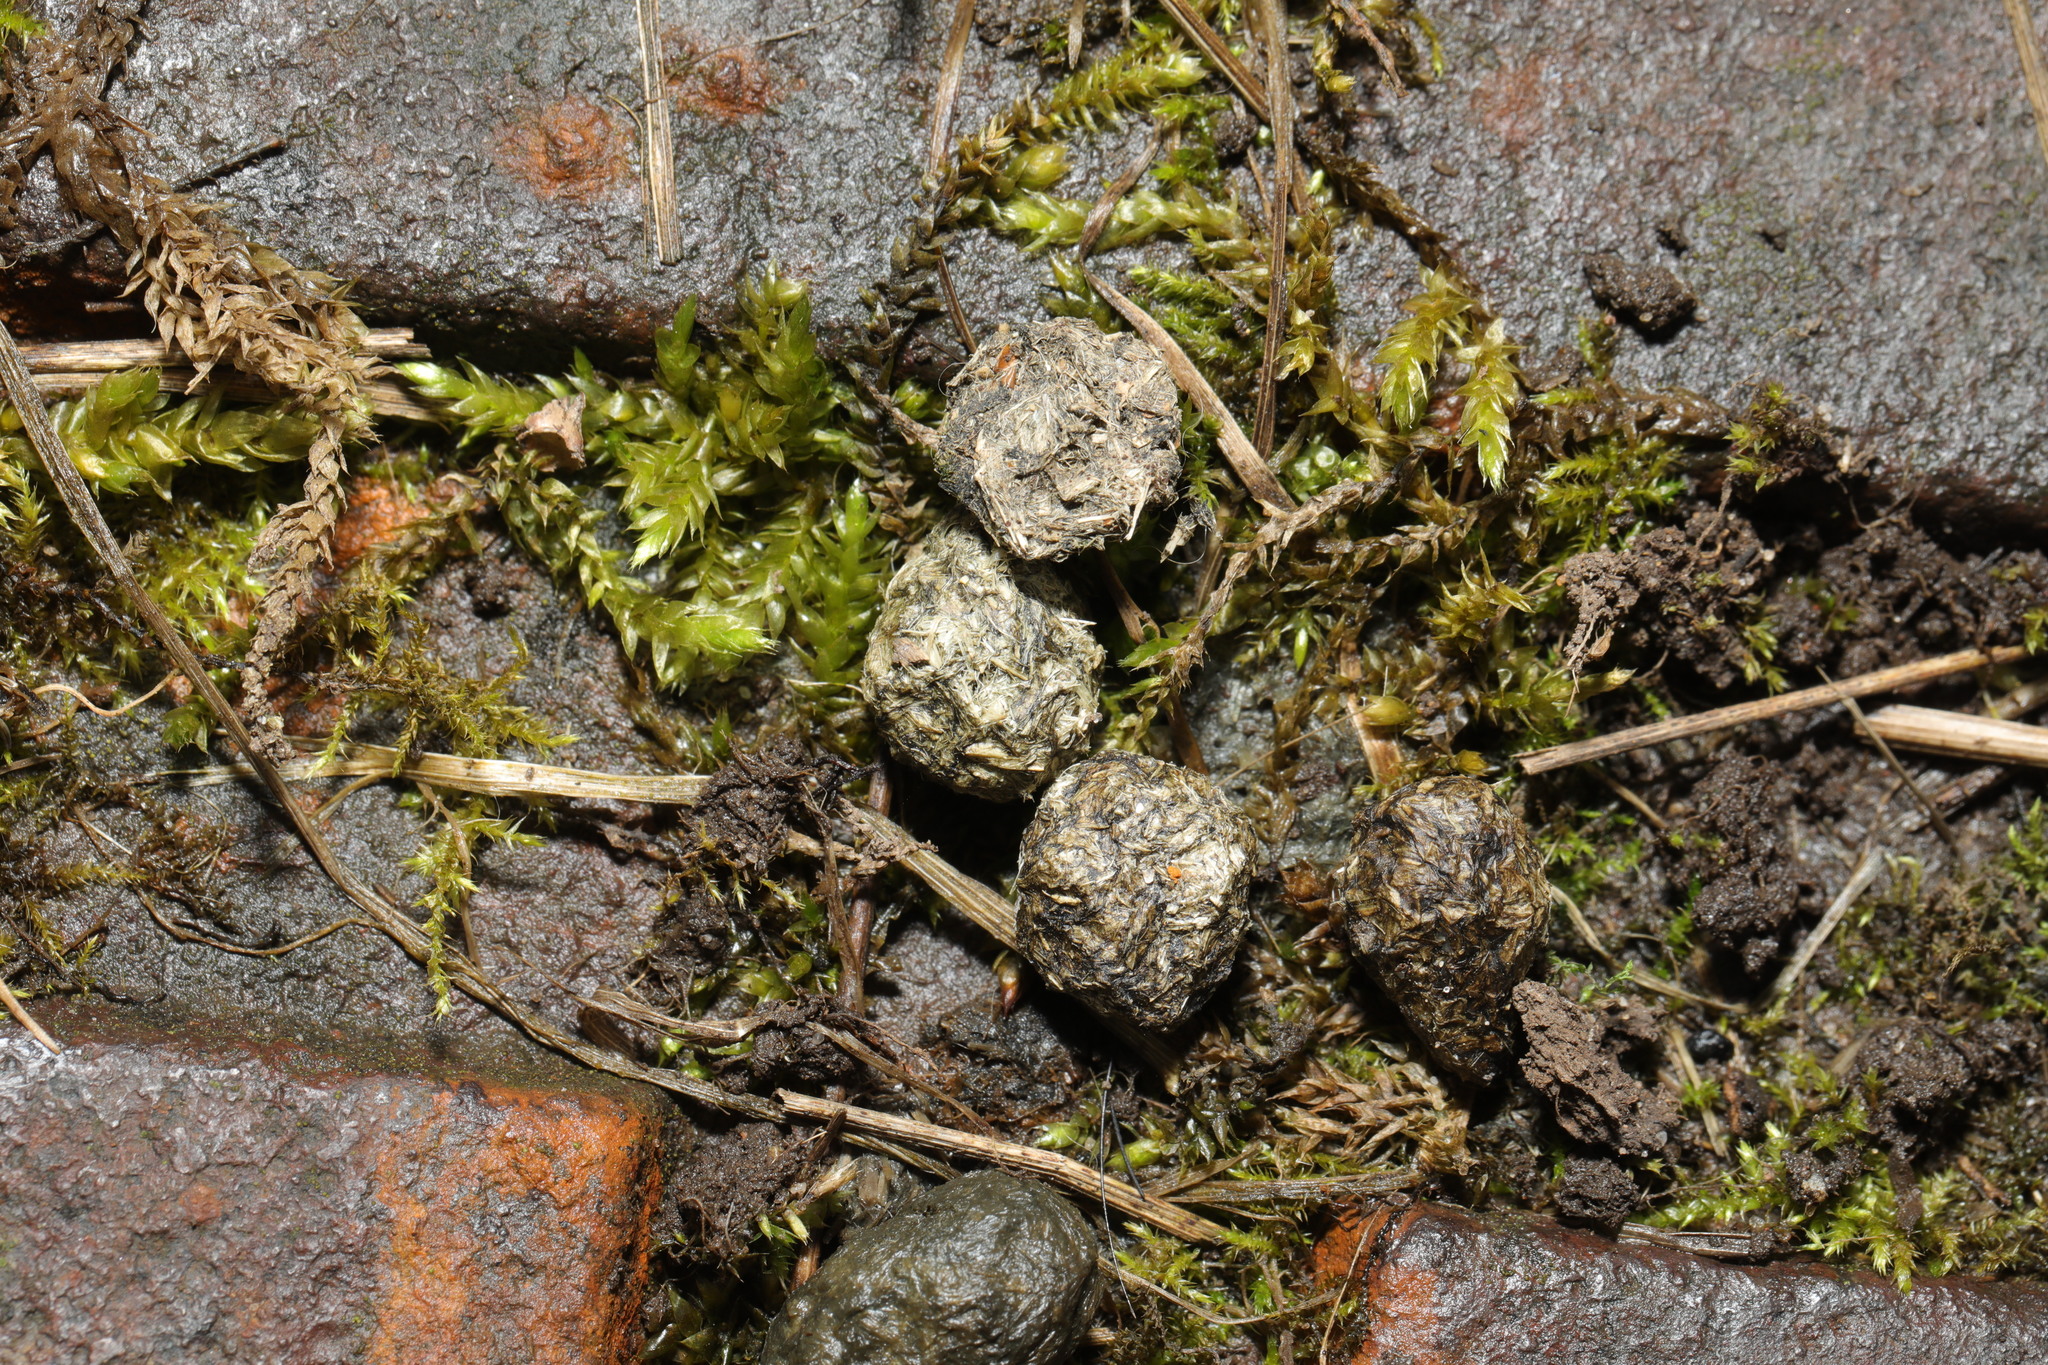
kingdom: Animalia
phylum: Chordata
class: Mammalia
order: Lagomorpha
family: Leporidae
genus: Oryctolagus
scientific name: Oryctolagus cuniculus
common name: European rabbit
